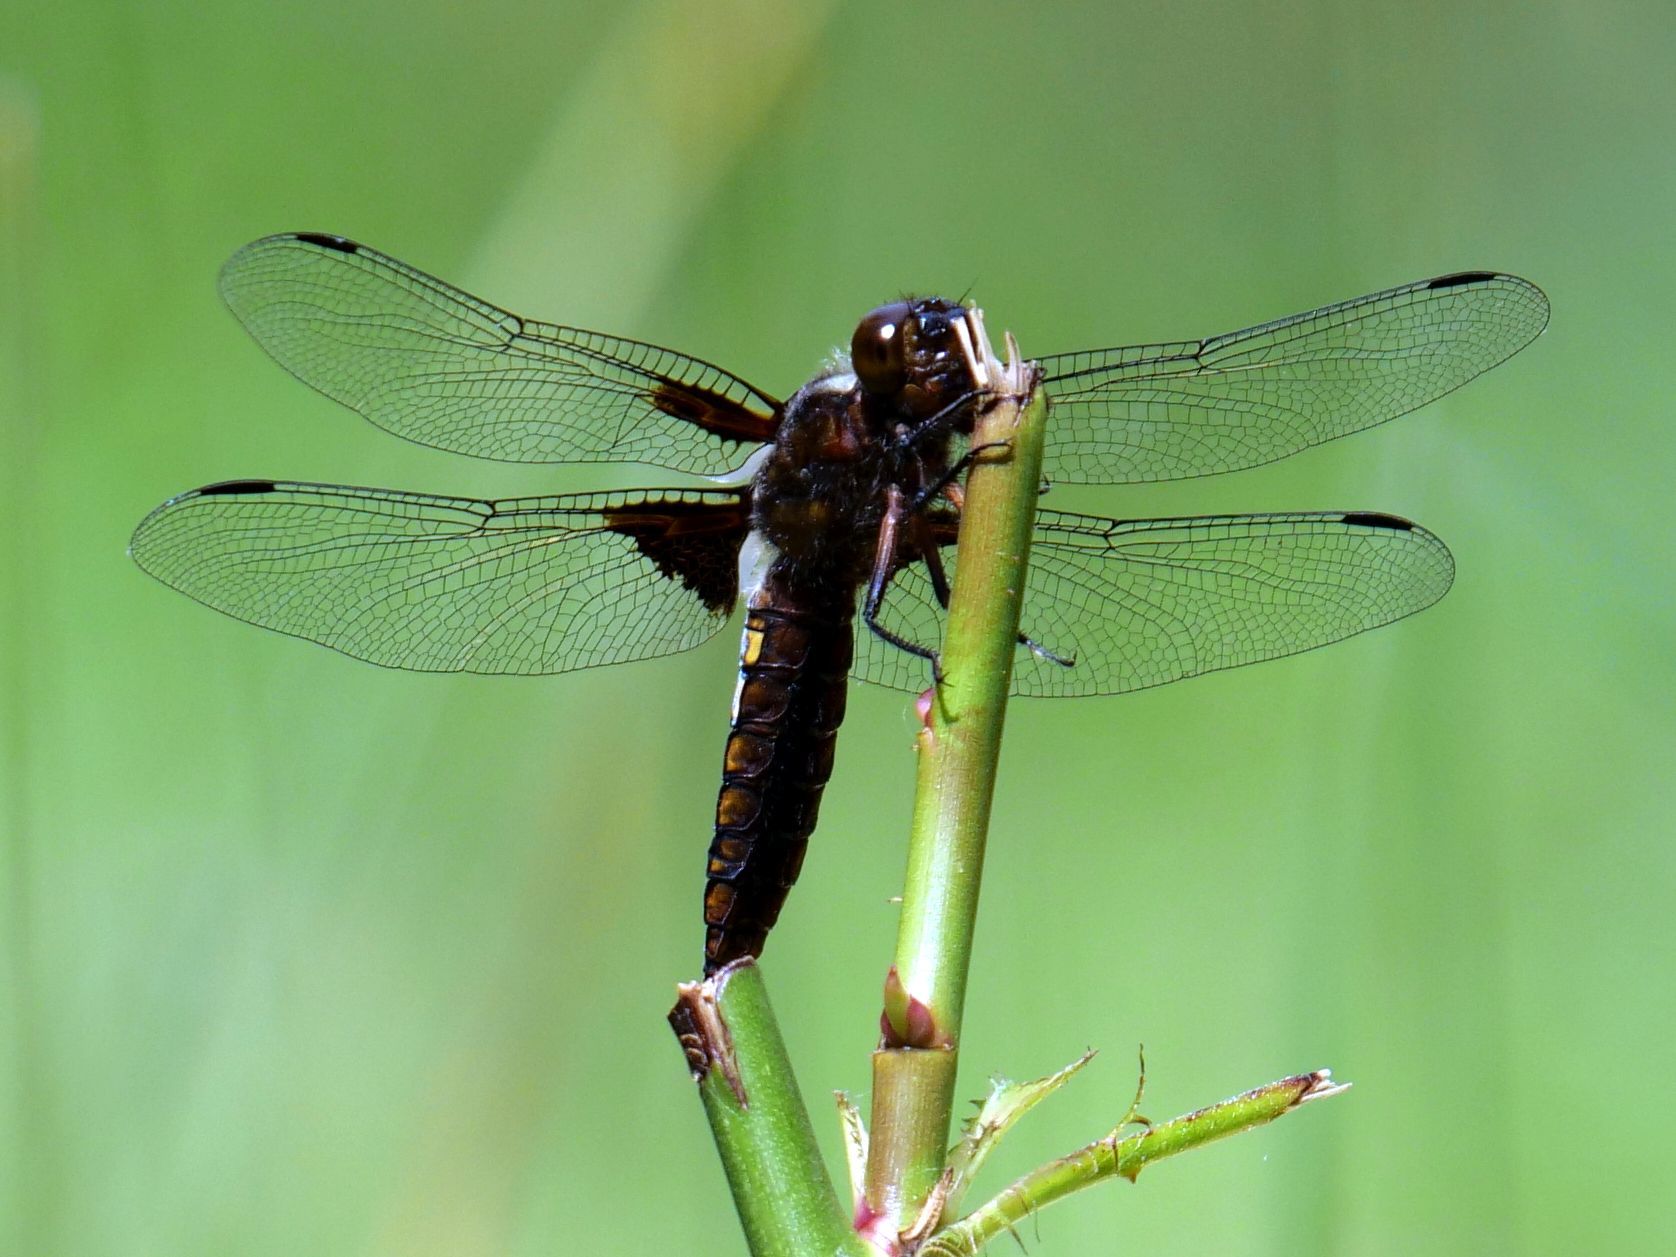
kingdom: Animalia
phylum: Arthropoda
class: Insecta
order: Odonata
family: Libellulidae
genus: Libellula
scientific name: Libellula depressa
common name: Broad-bodied chaser
